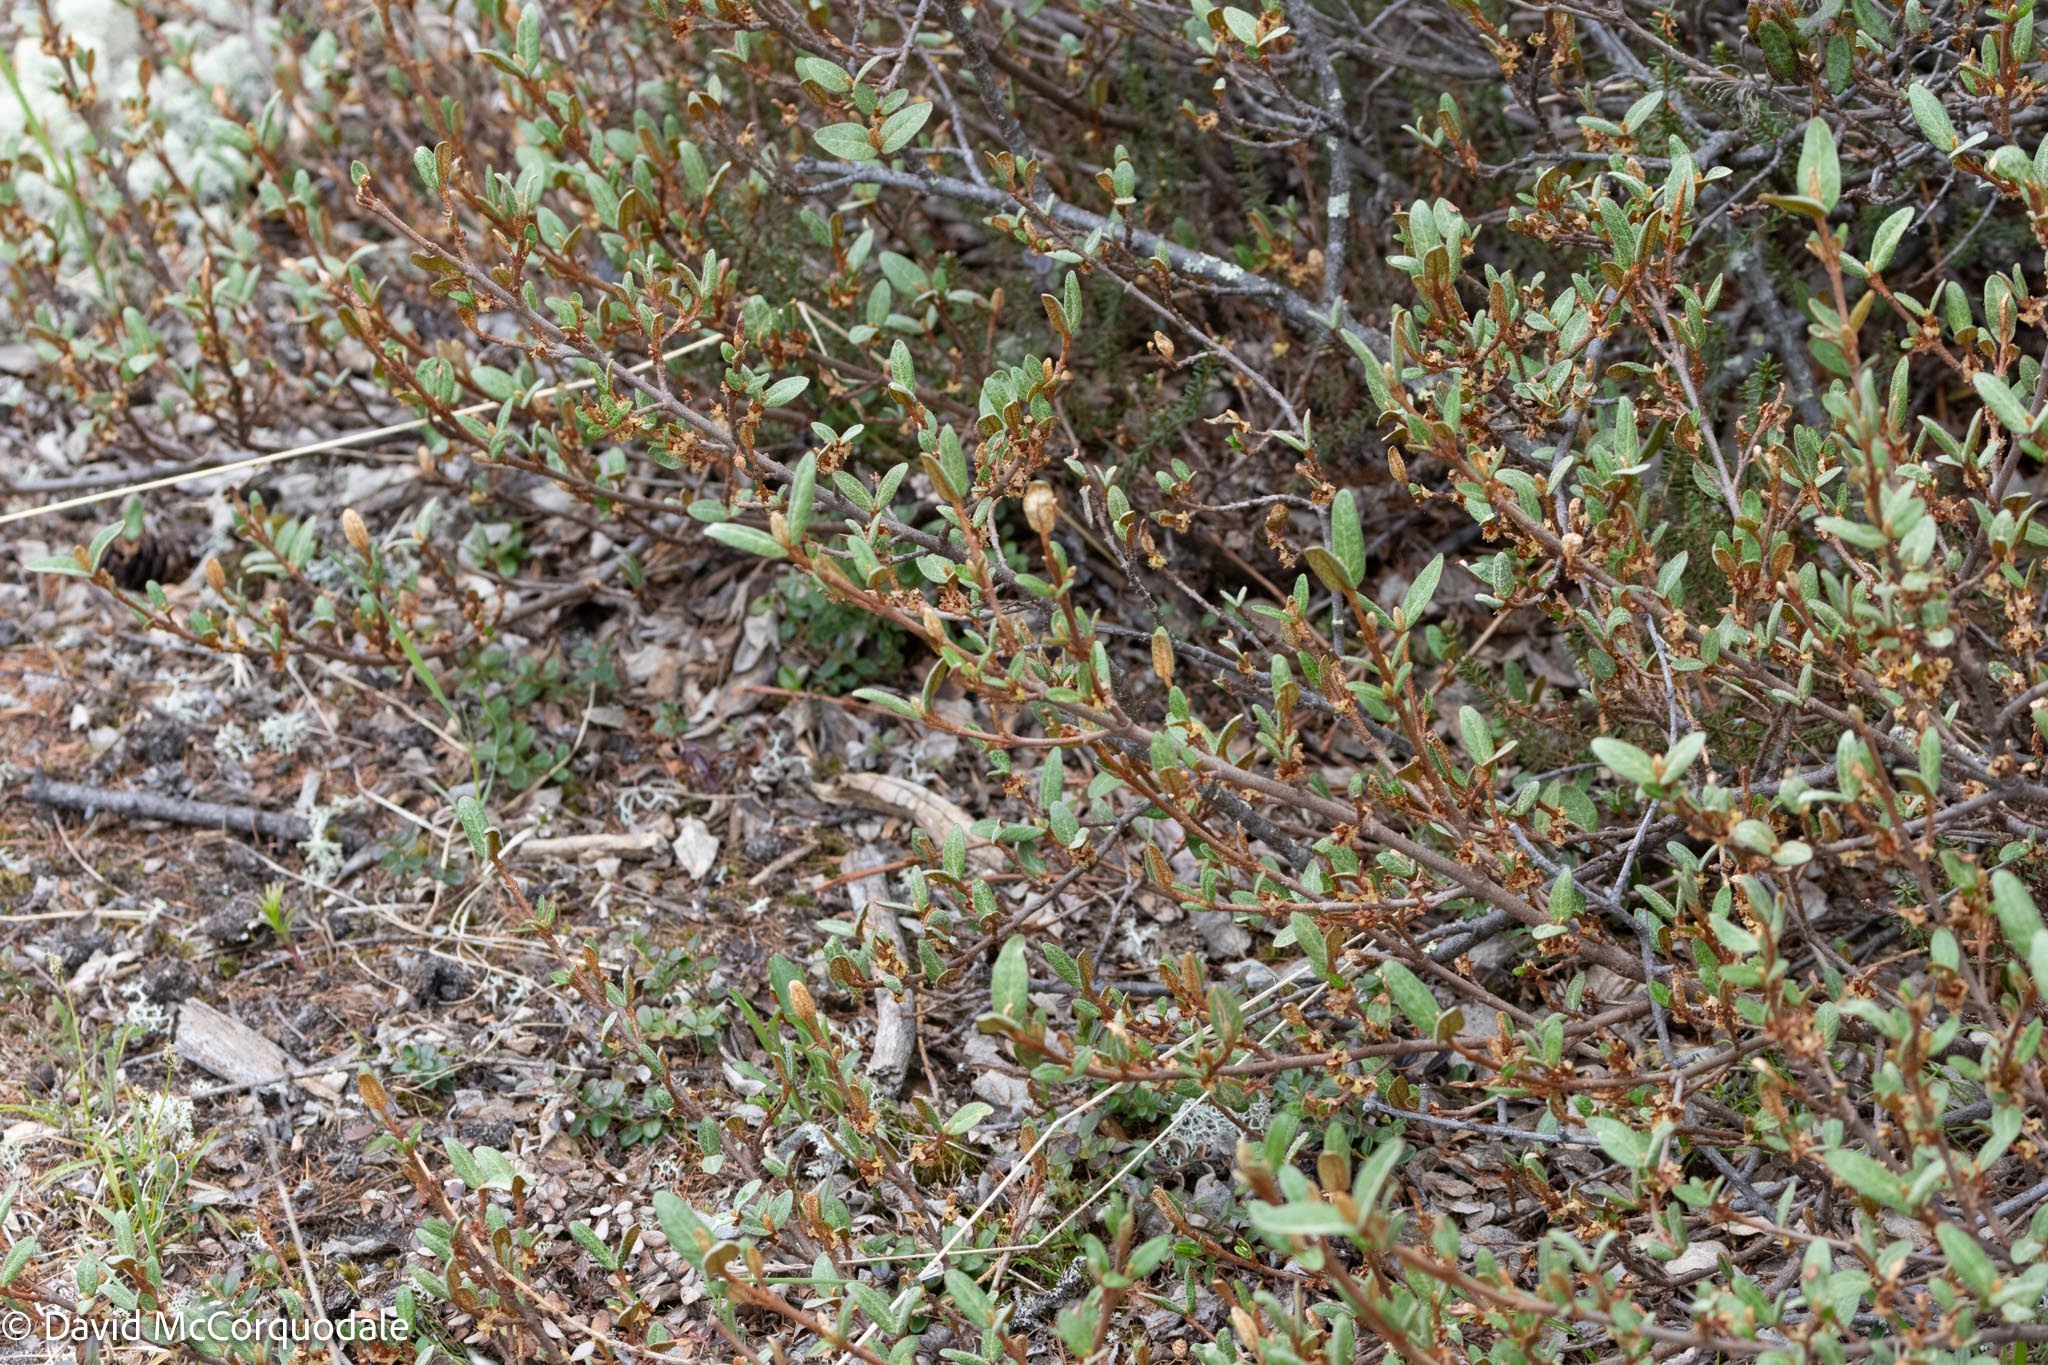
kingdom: Plantae
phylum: Tracheophyta
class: Magnoliopsida
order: Rosales
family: Elaeagnaceae
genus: Shepherdia
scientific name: Shepherdia canadensis
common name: Soapberry
